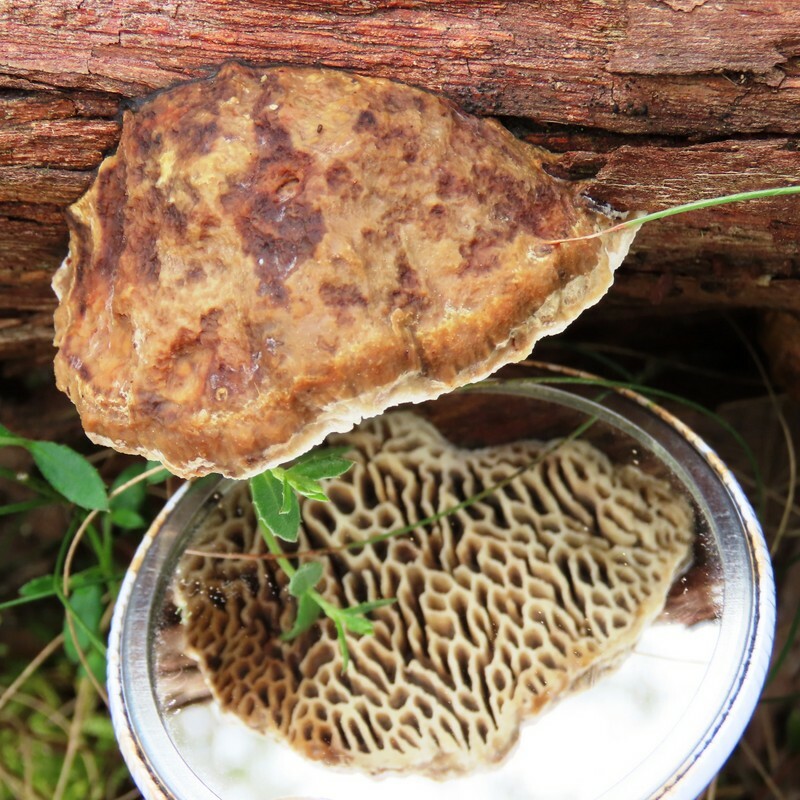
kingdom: Fungi
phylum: Basidiomycota
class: Agaricomycetes
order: Polyporales
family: Polyporaceae
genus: Hexagonia
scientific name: Hexagonia vesparia
